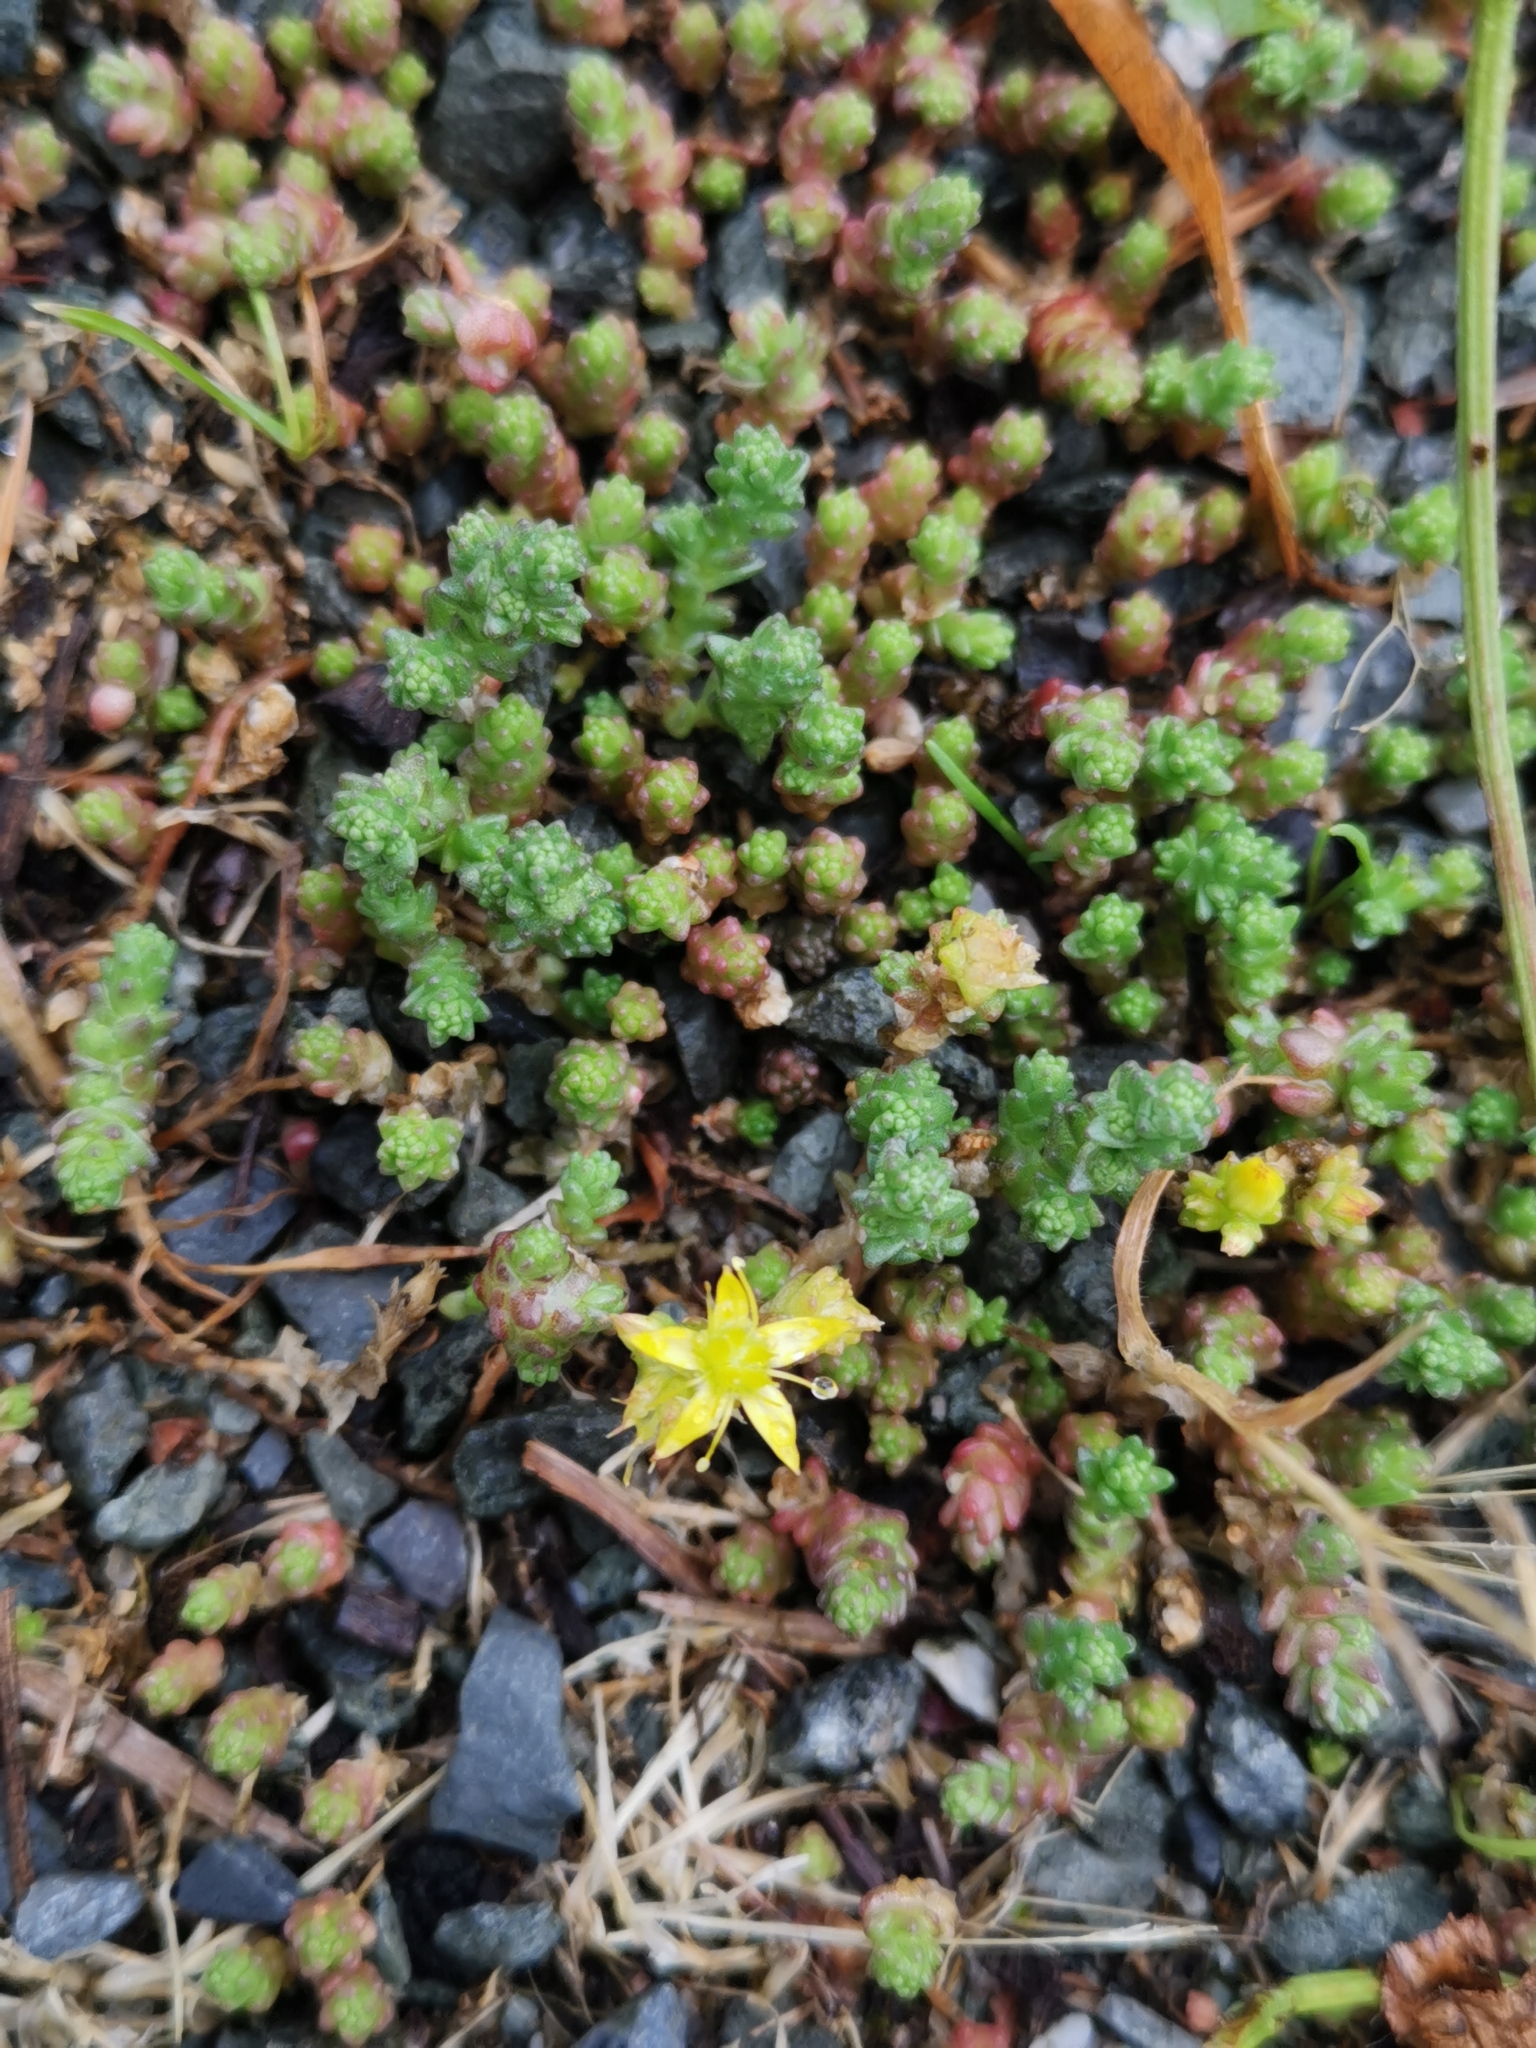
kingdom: Plantae
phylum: Tracheophyta
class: Magnoliopsida
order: Saxifragales
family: Crassulaceae
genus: Sedum
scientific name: Sedum acre
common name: Biting stonecrop
